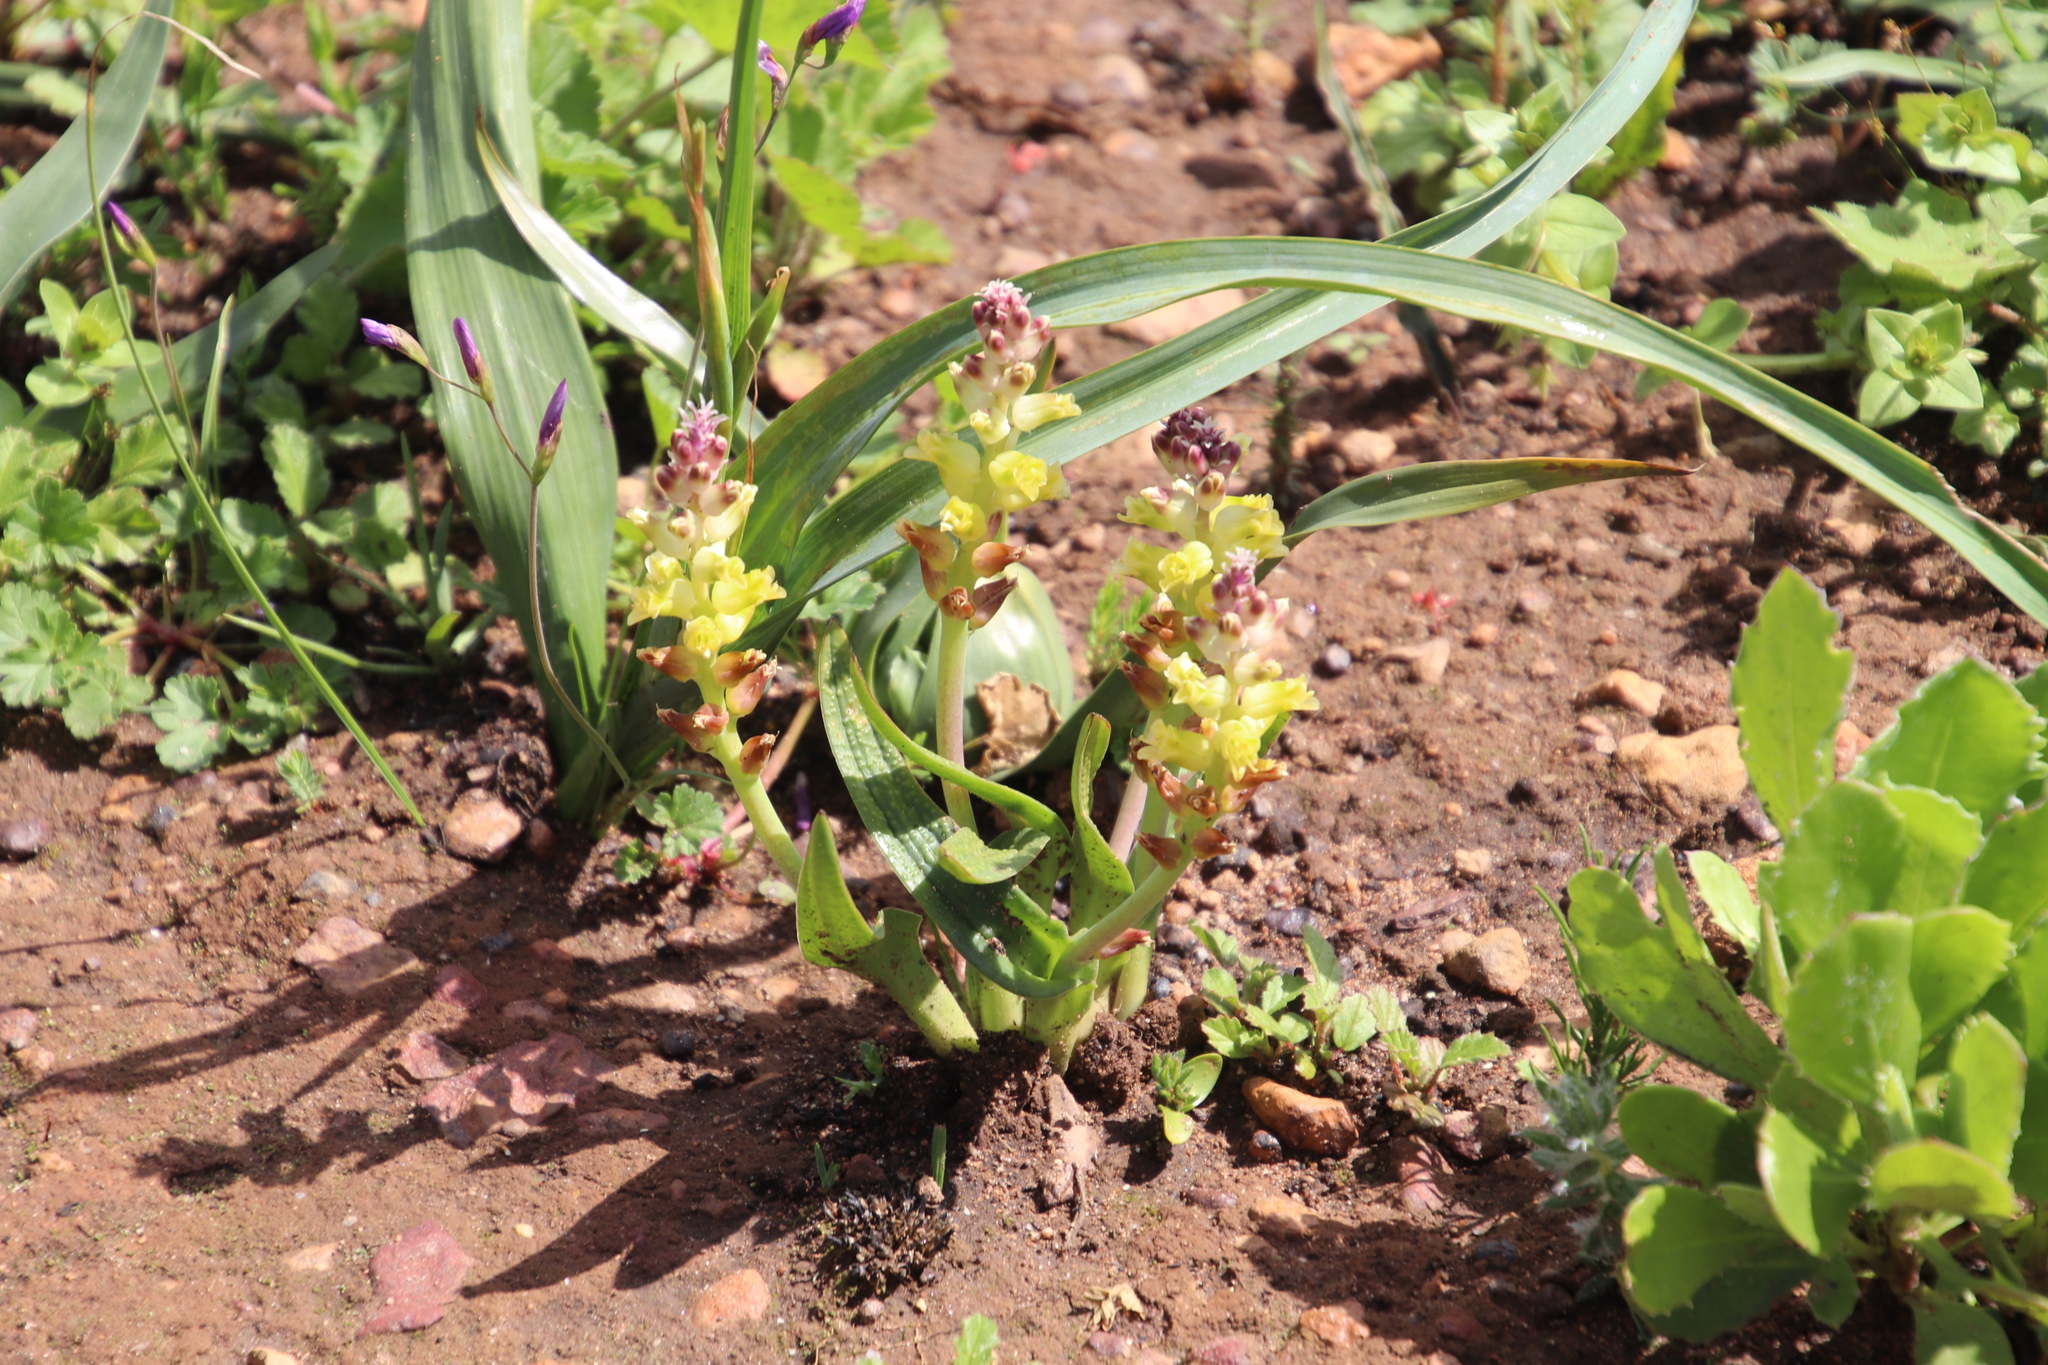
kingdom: Plantae
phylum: Tracheophyta
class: Liliopsida
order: Asparagales
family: Asparagaceae
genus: Lachenalia
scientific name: Lachenalia orchioides
